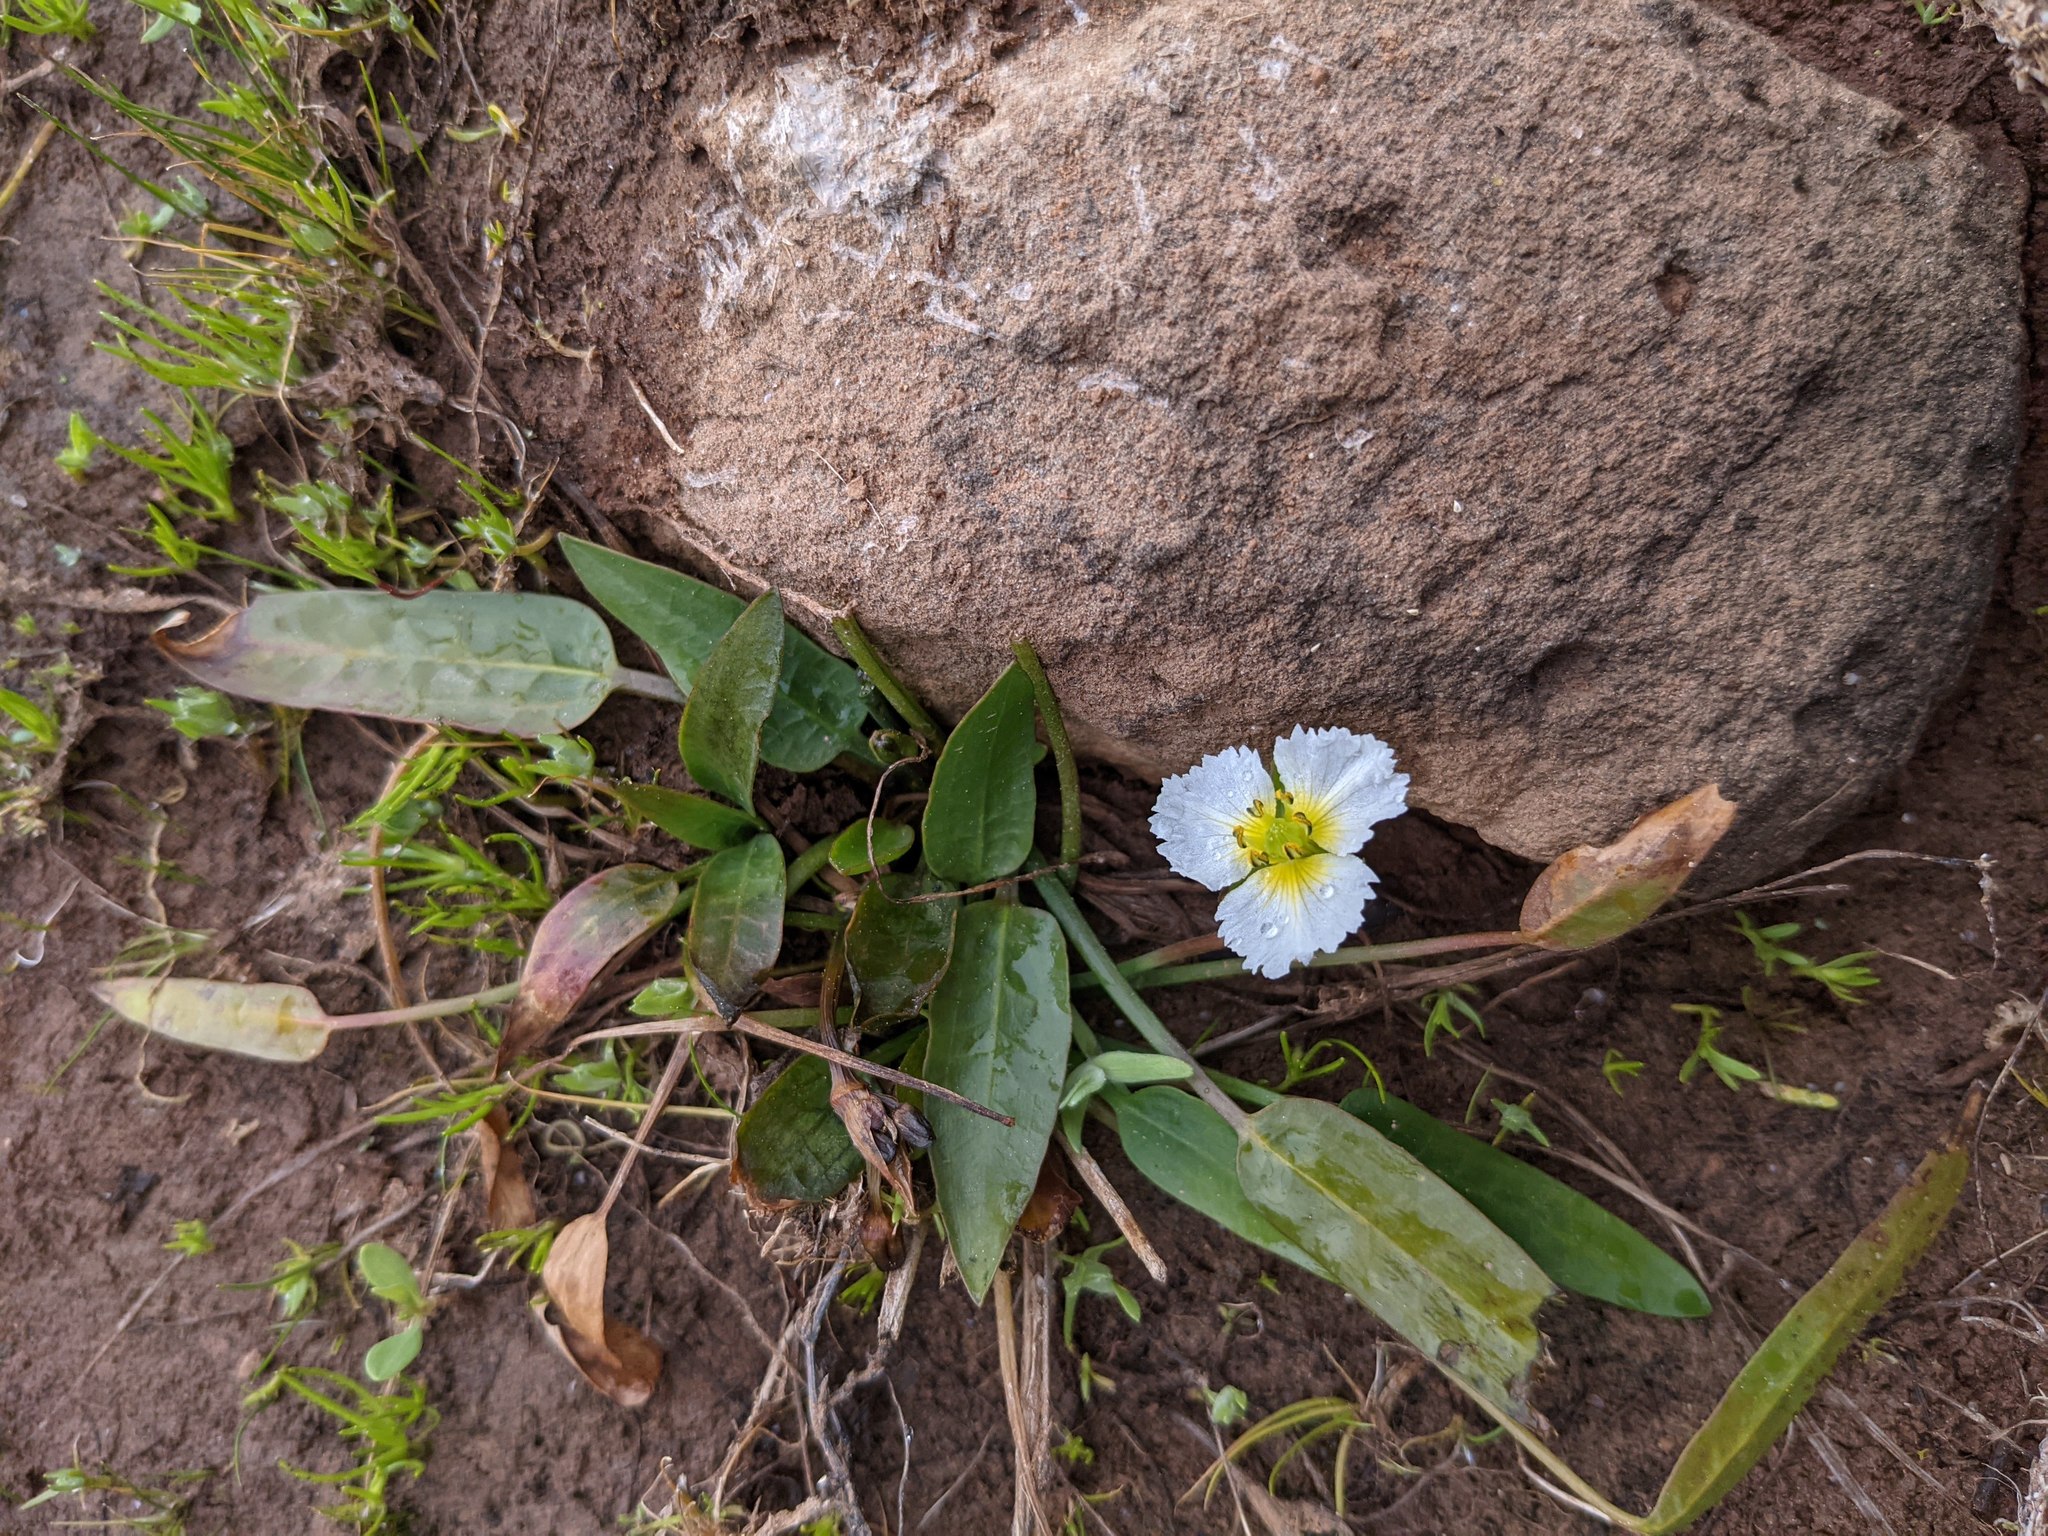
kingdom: Plantae
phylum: Tracheophyta
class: Liliopsida
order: Alismatales
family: Alismataceae
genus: Damasonium
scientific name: Damasonium californicum
